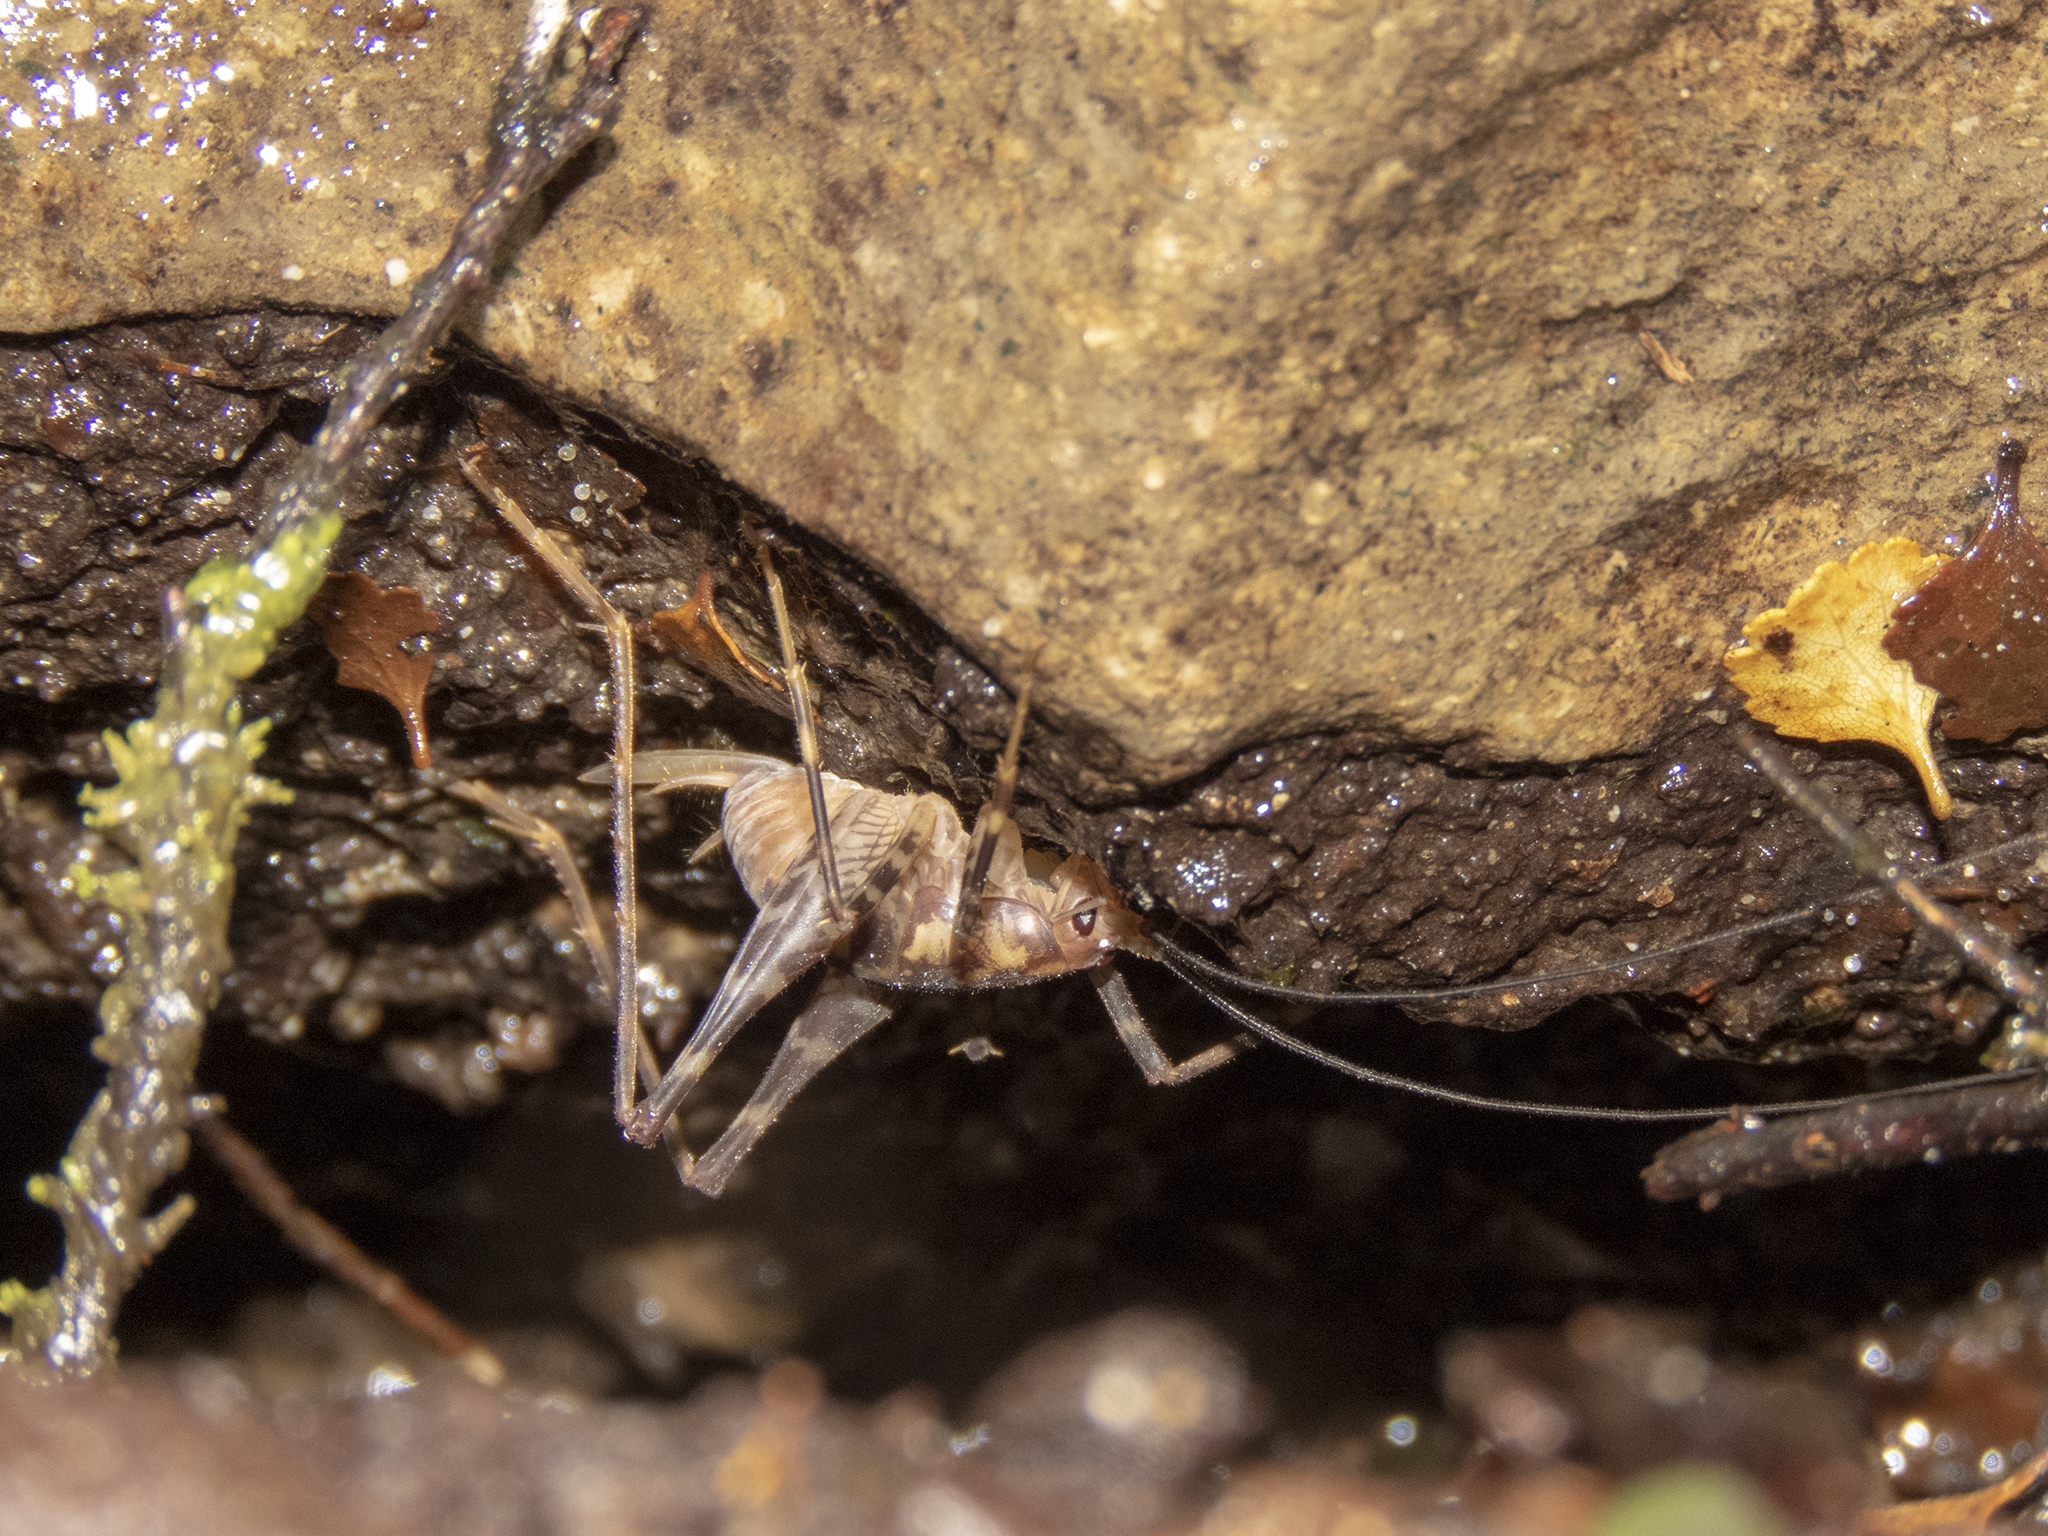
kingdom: Animalia
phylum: Arthropoda
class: Insecta
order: Orthoptera
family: Rhaphidophoridae
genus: Miotopus
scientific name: Miotopus richardsae
